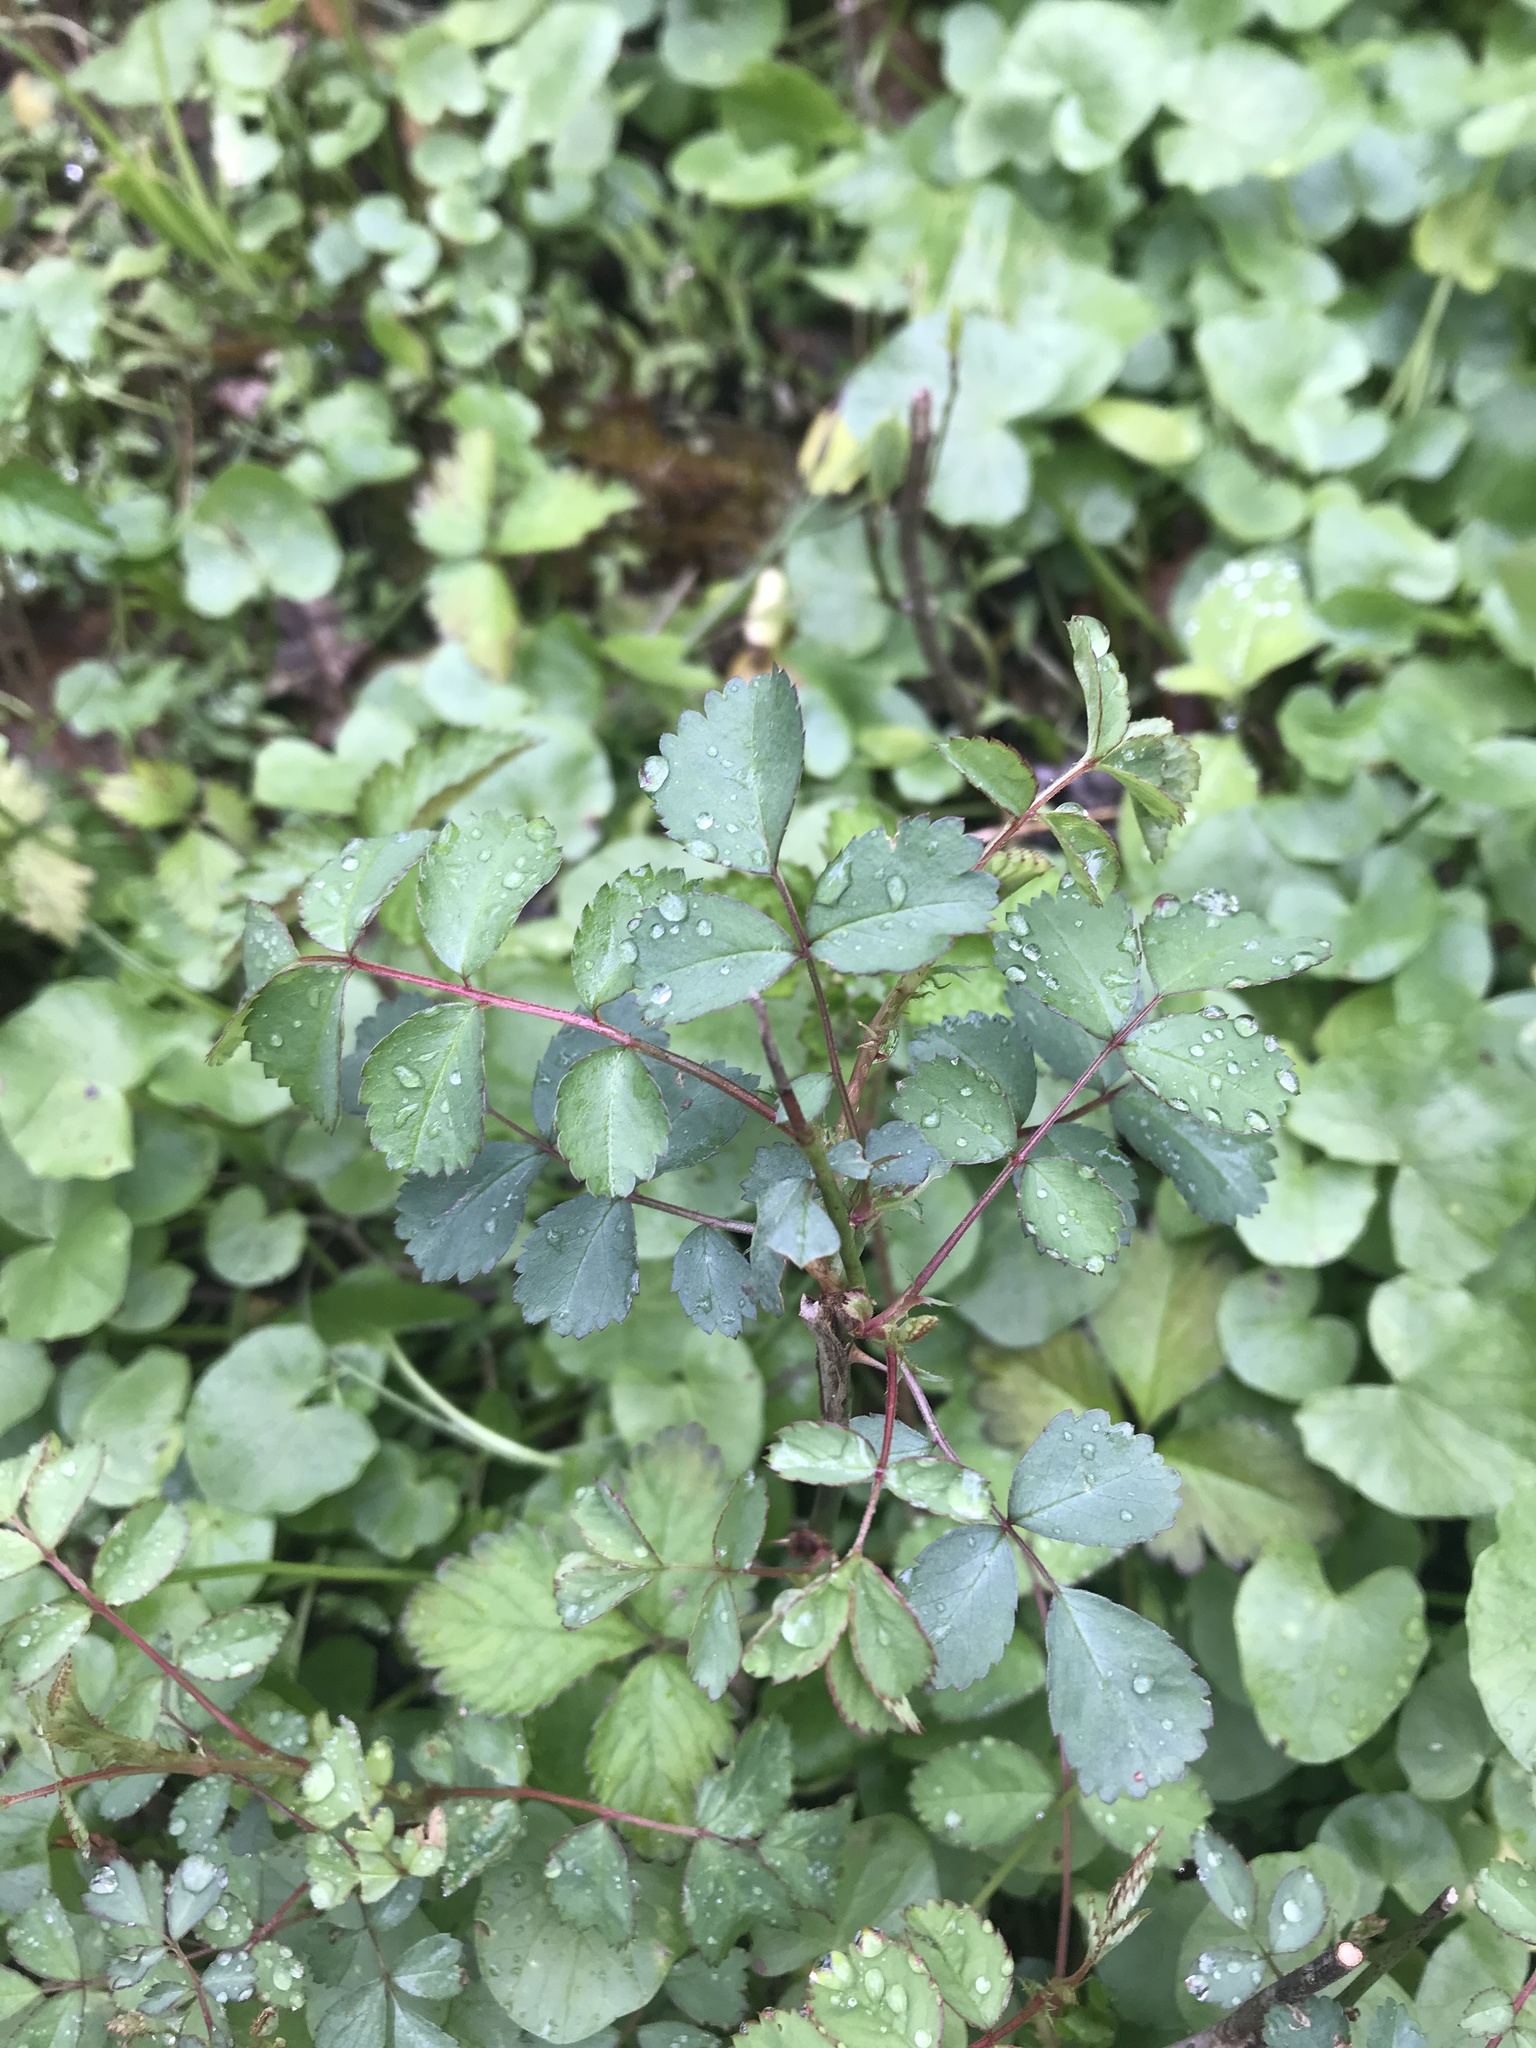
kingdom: Plantae
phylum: Tracheophyta
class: Magnoliopsida
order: Rosales
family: Rosaceae
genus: Rosa
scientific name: Rosa multiflora
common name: Multiflora rose
